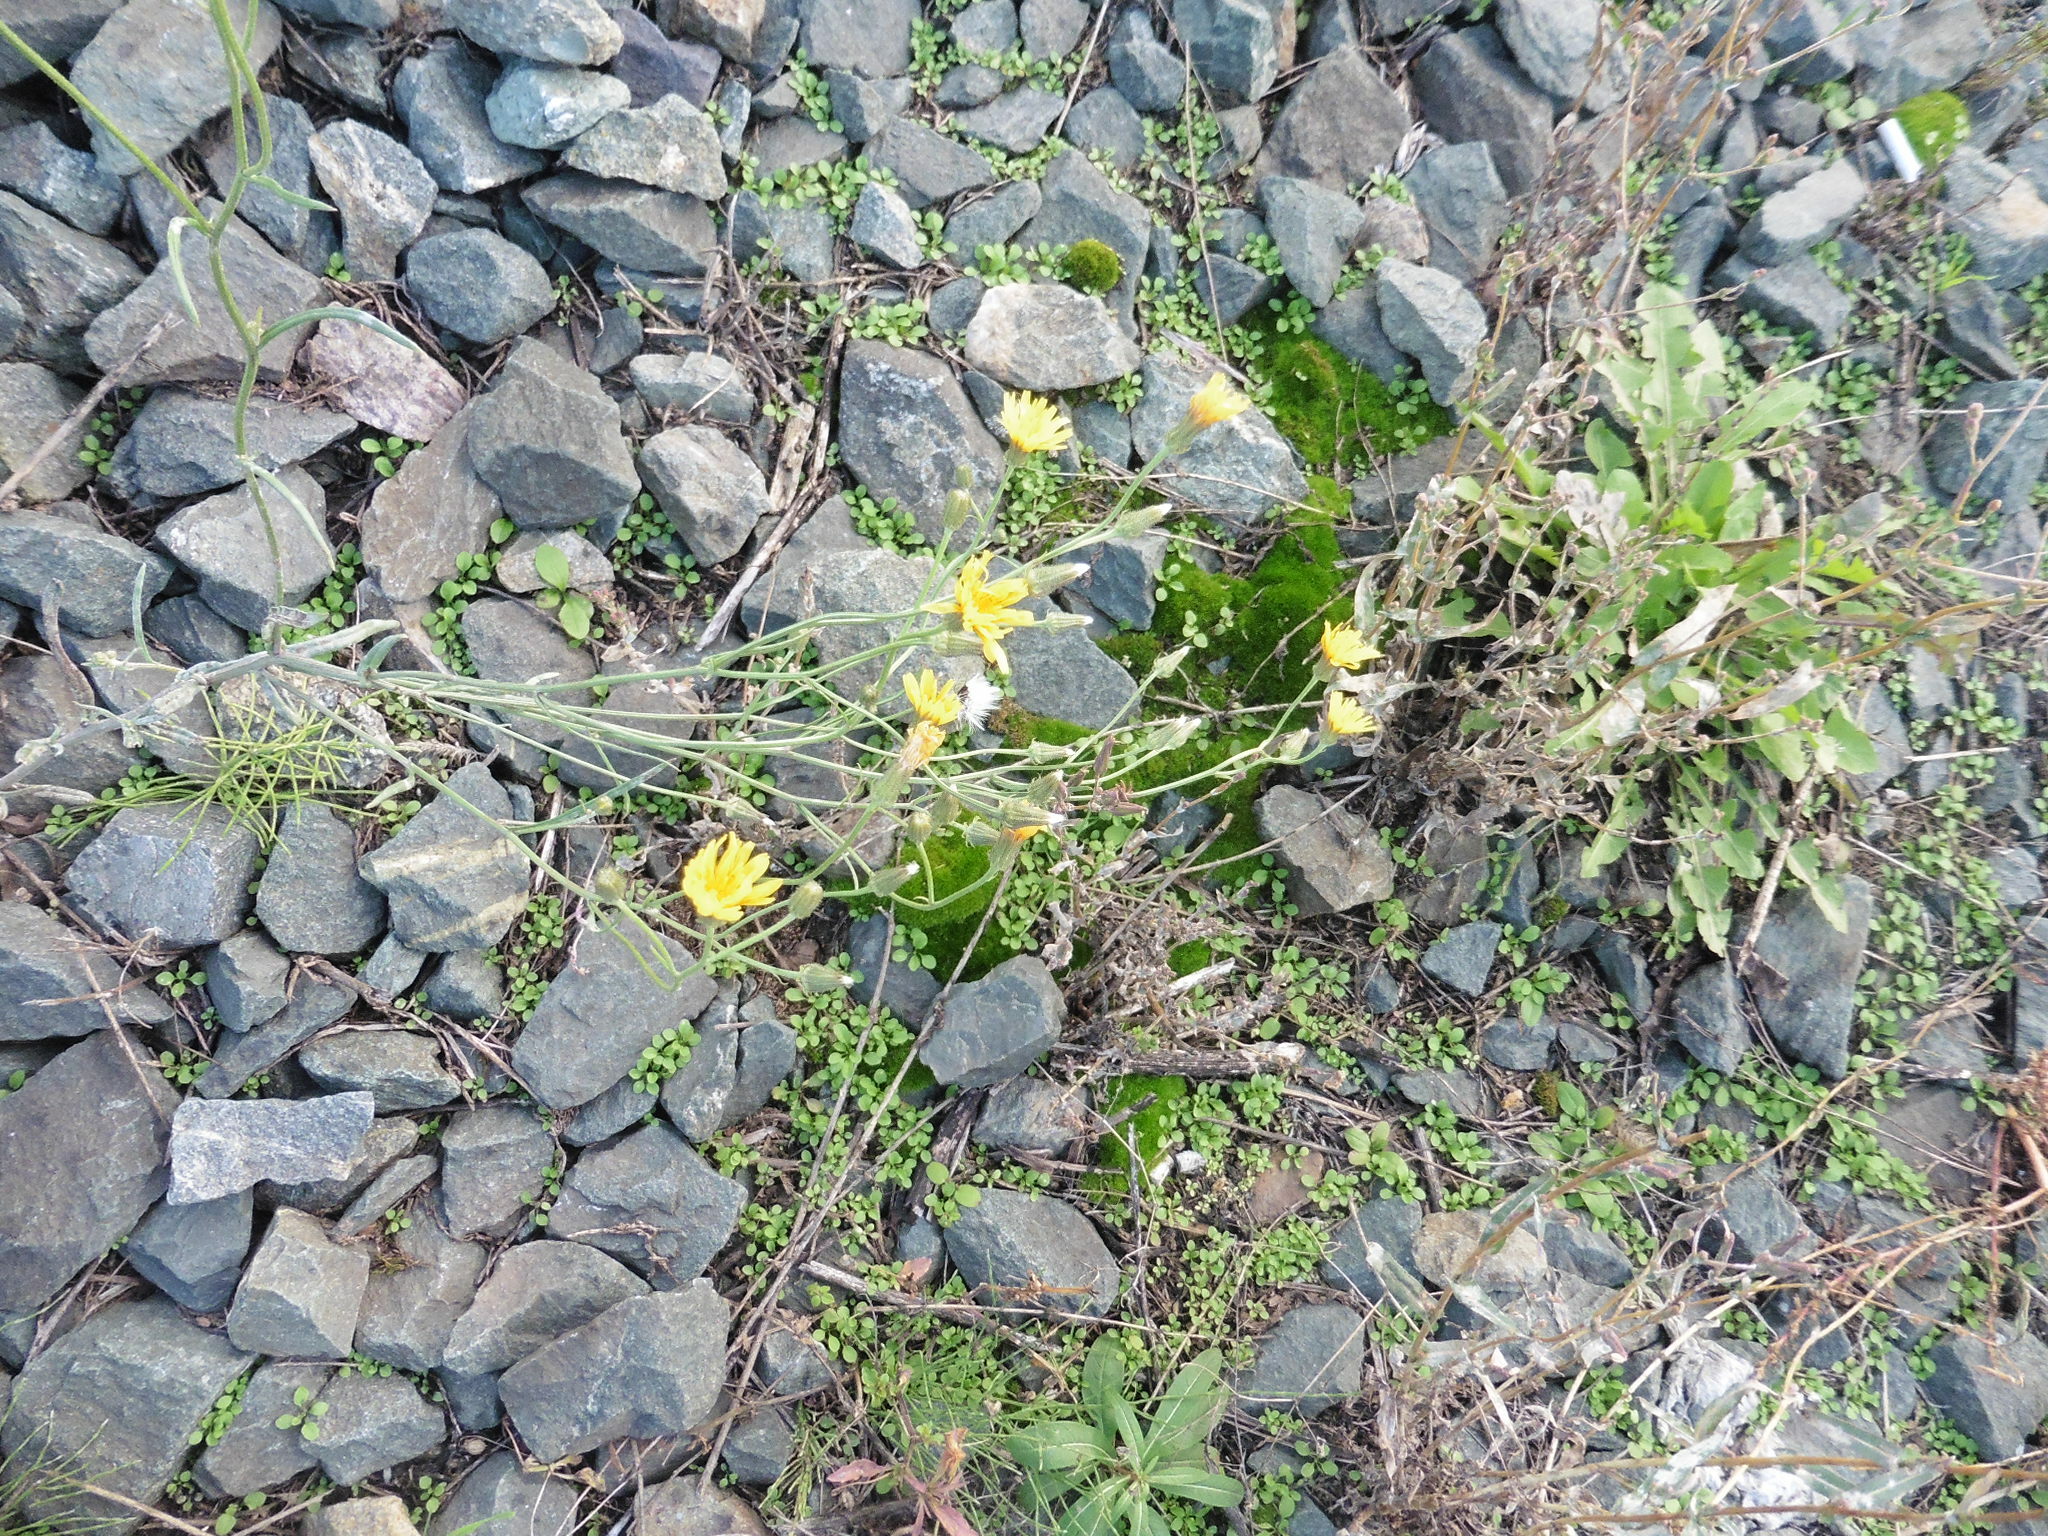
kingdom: Plantae
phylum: Tracheophyta
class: Magnoliopsida
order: Asterales
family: Asteraceae
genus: Crepis
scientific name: Crepis tectorum
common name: Narrow-leaved hawk's-beard
